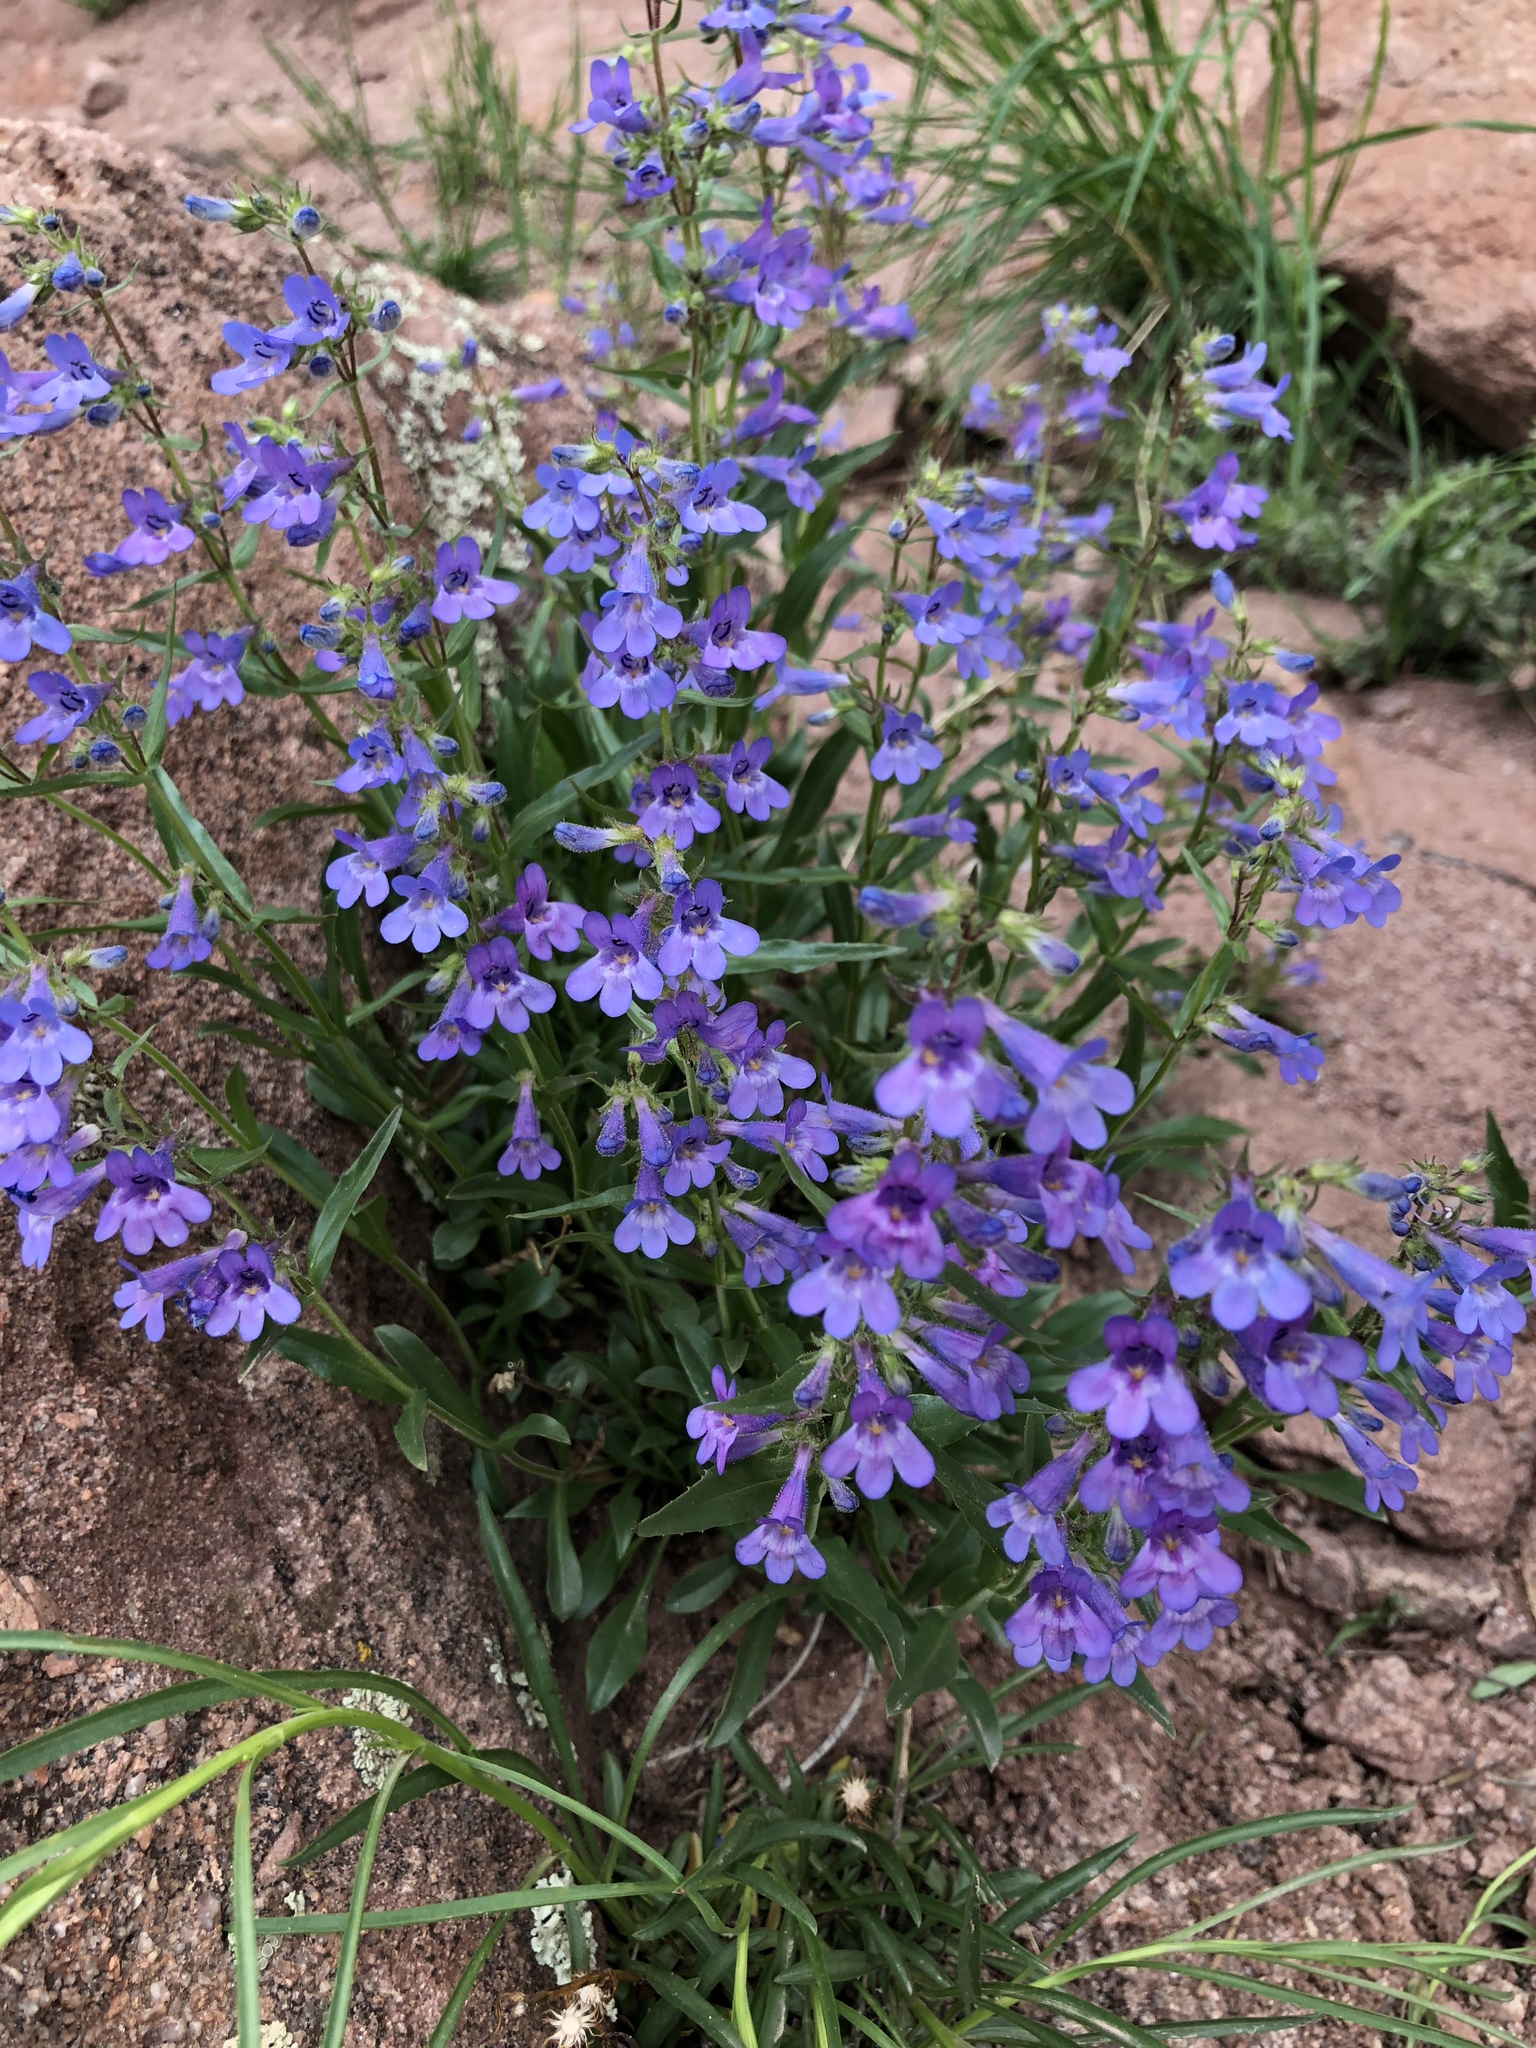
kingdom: Plantae
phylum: Tracheophyta
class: Magnoliopsida
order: Lamiales
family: Plantaginaceae
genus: Penstemon
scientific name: Penstemon virens
